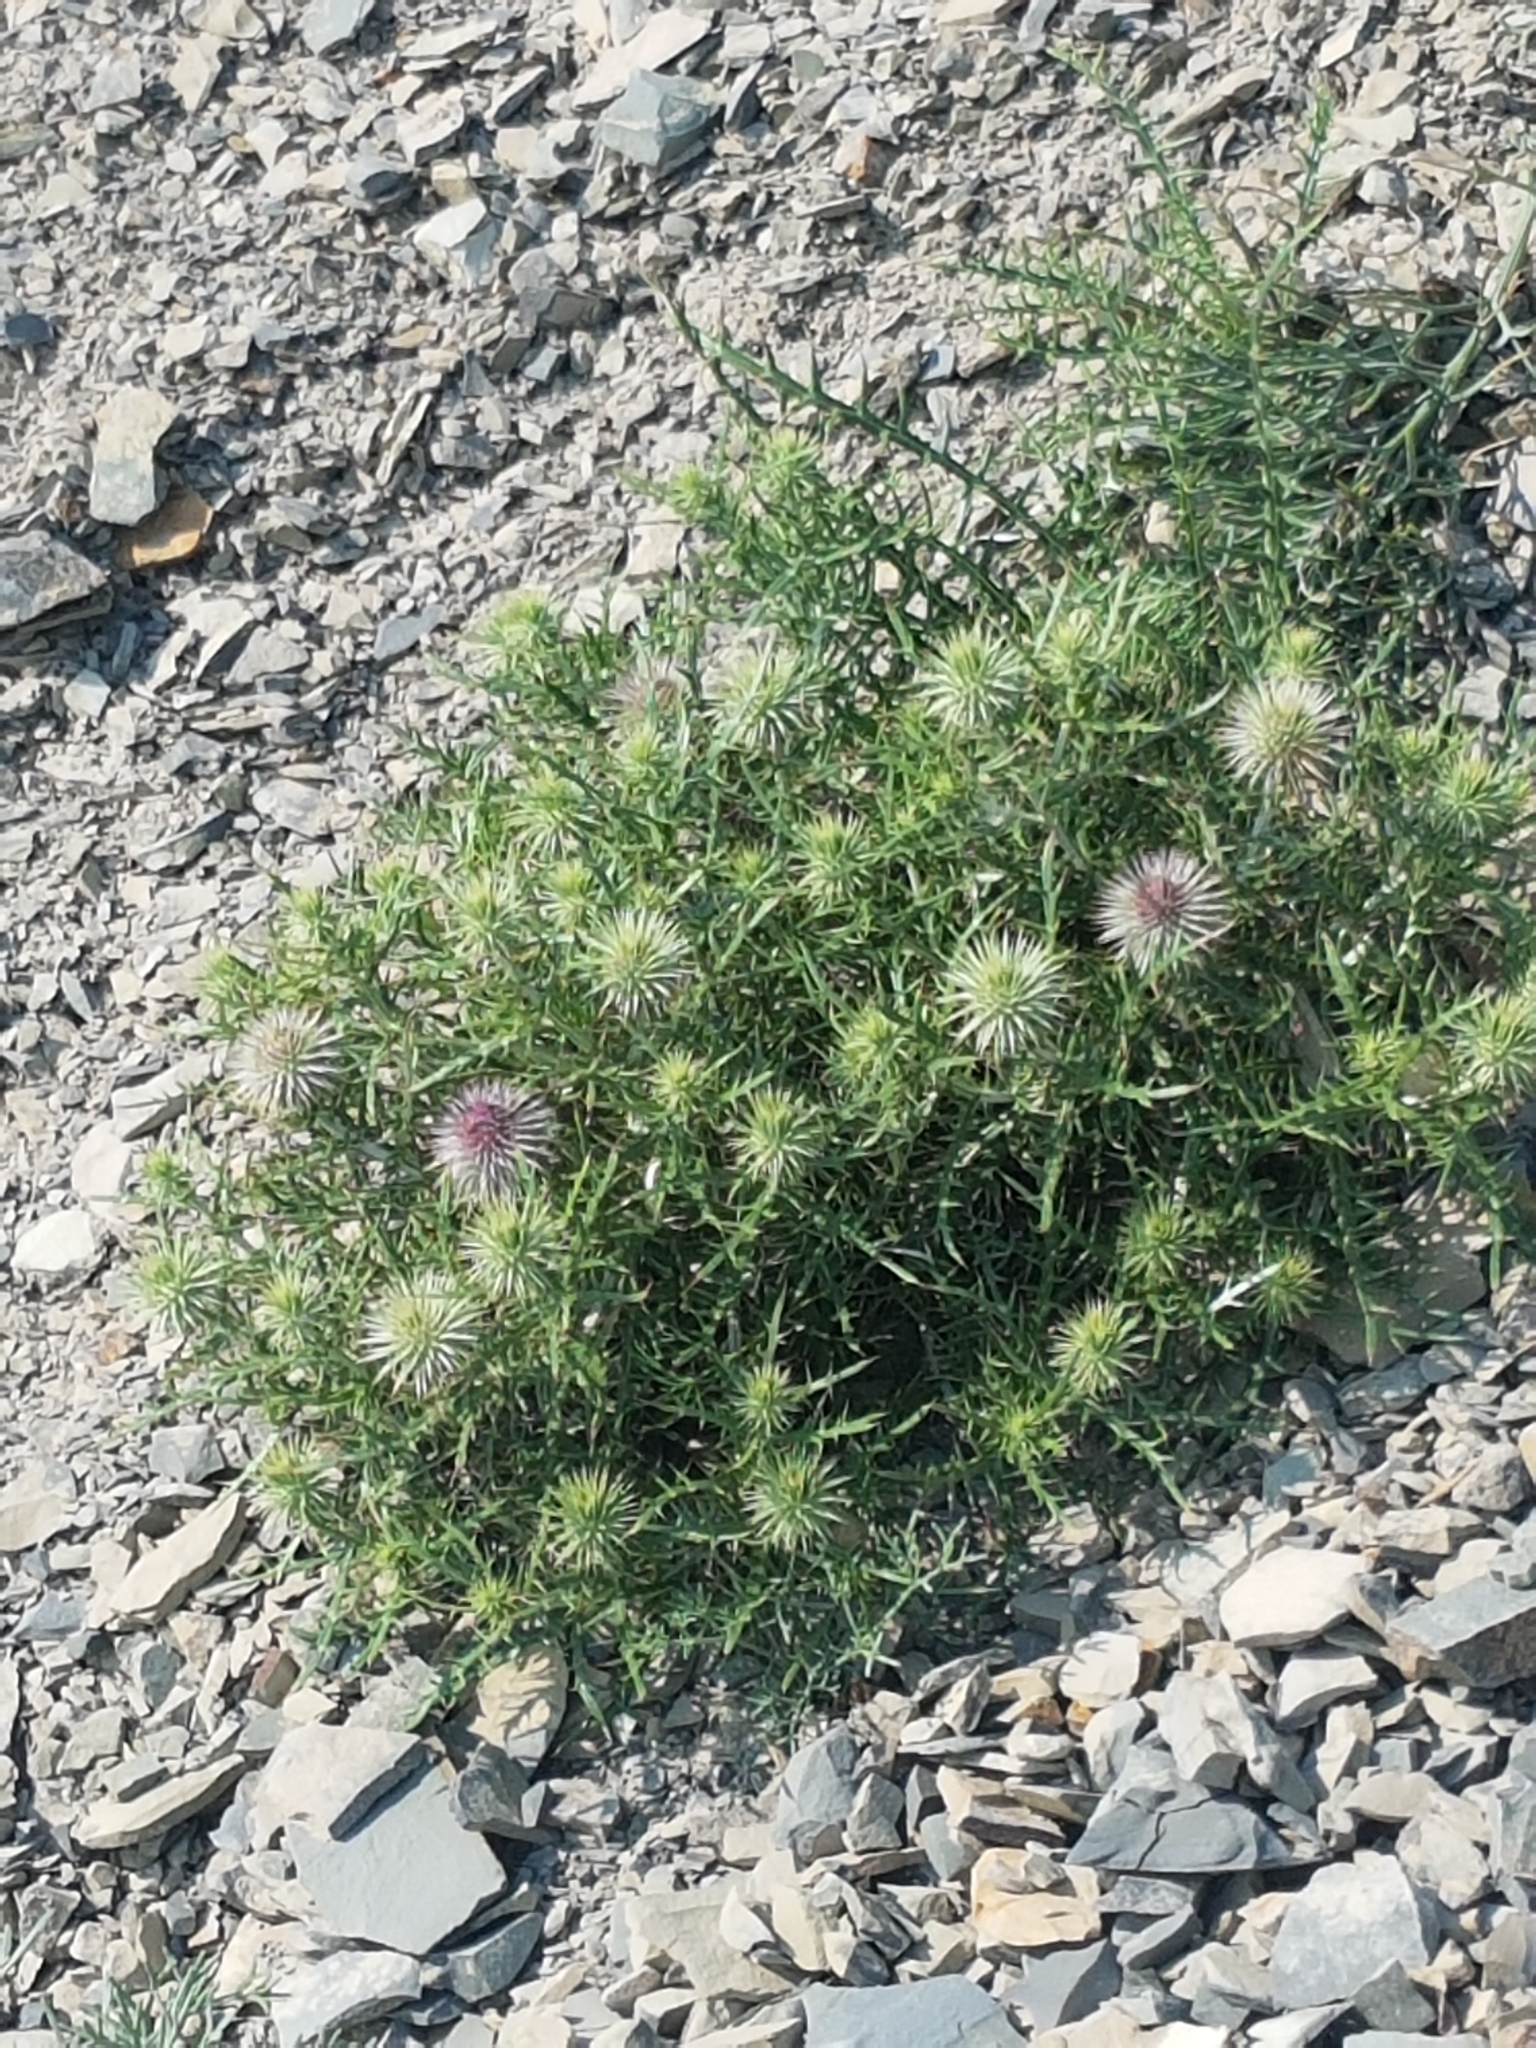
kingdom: Plantae
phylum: Tracheophyta
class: Magnoliopsida
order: Asterales
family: Asteraceae
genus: Ptilostemon
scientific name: Ptilostemon echinocephalus
